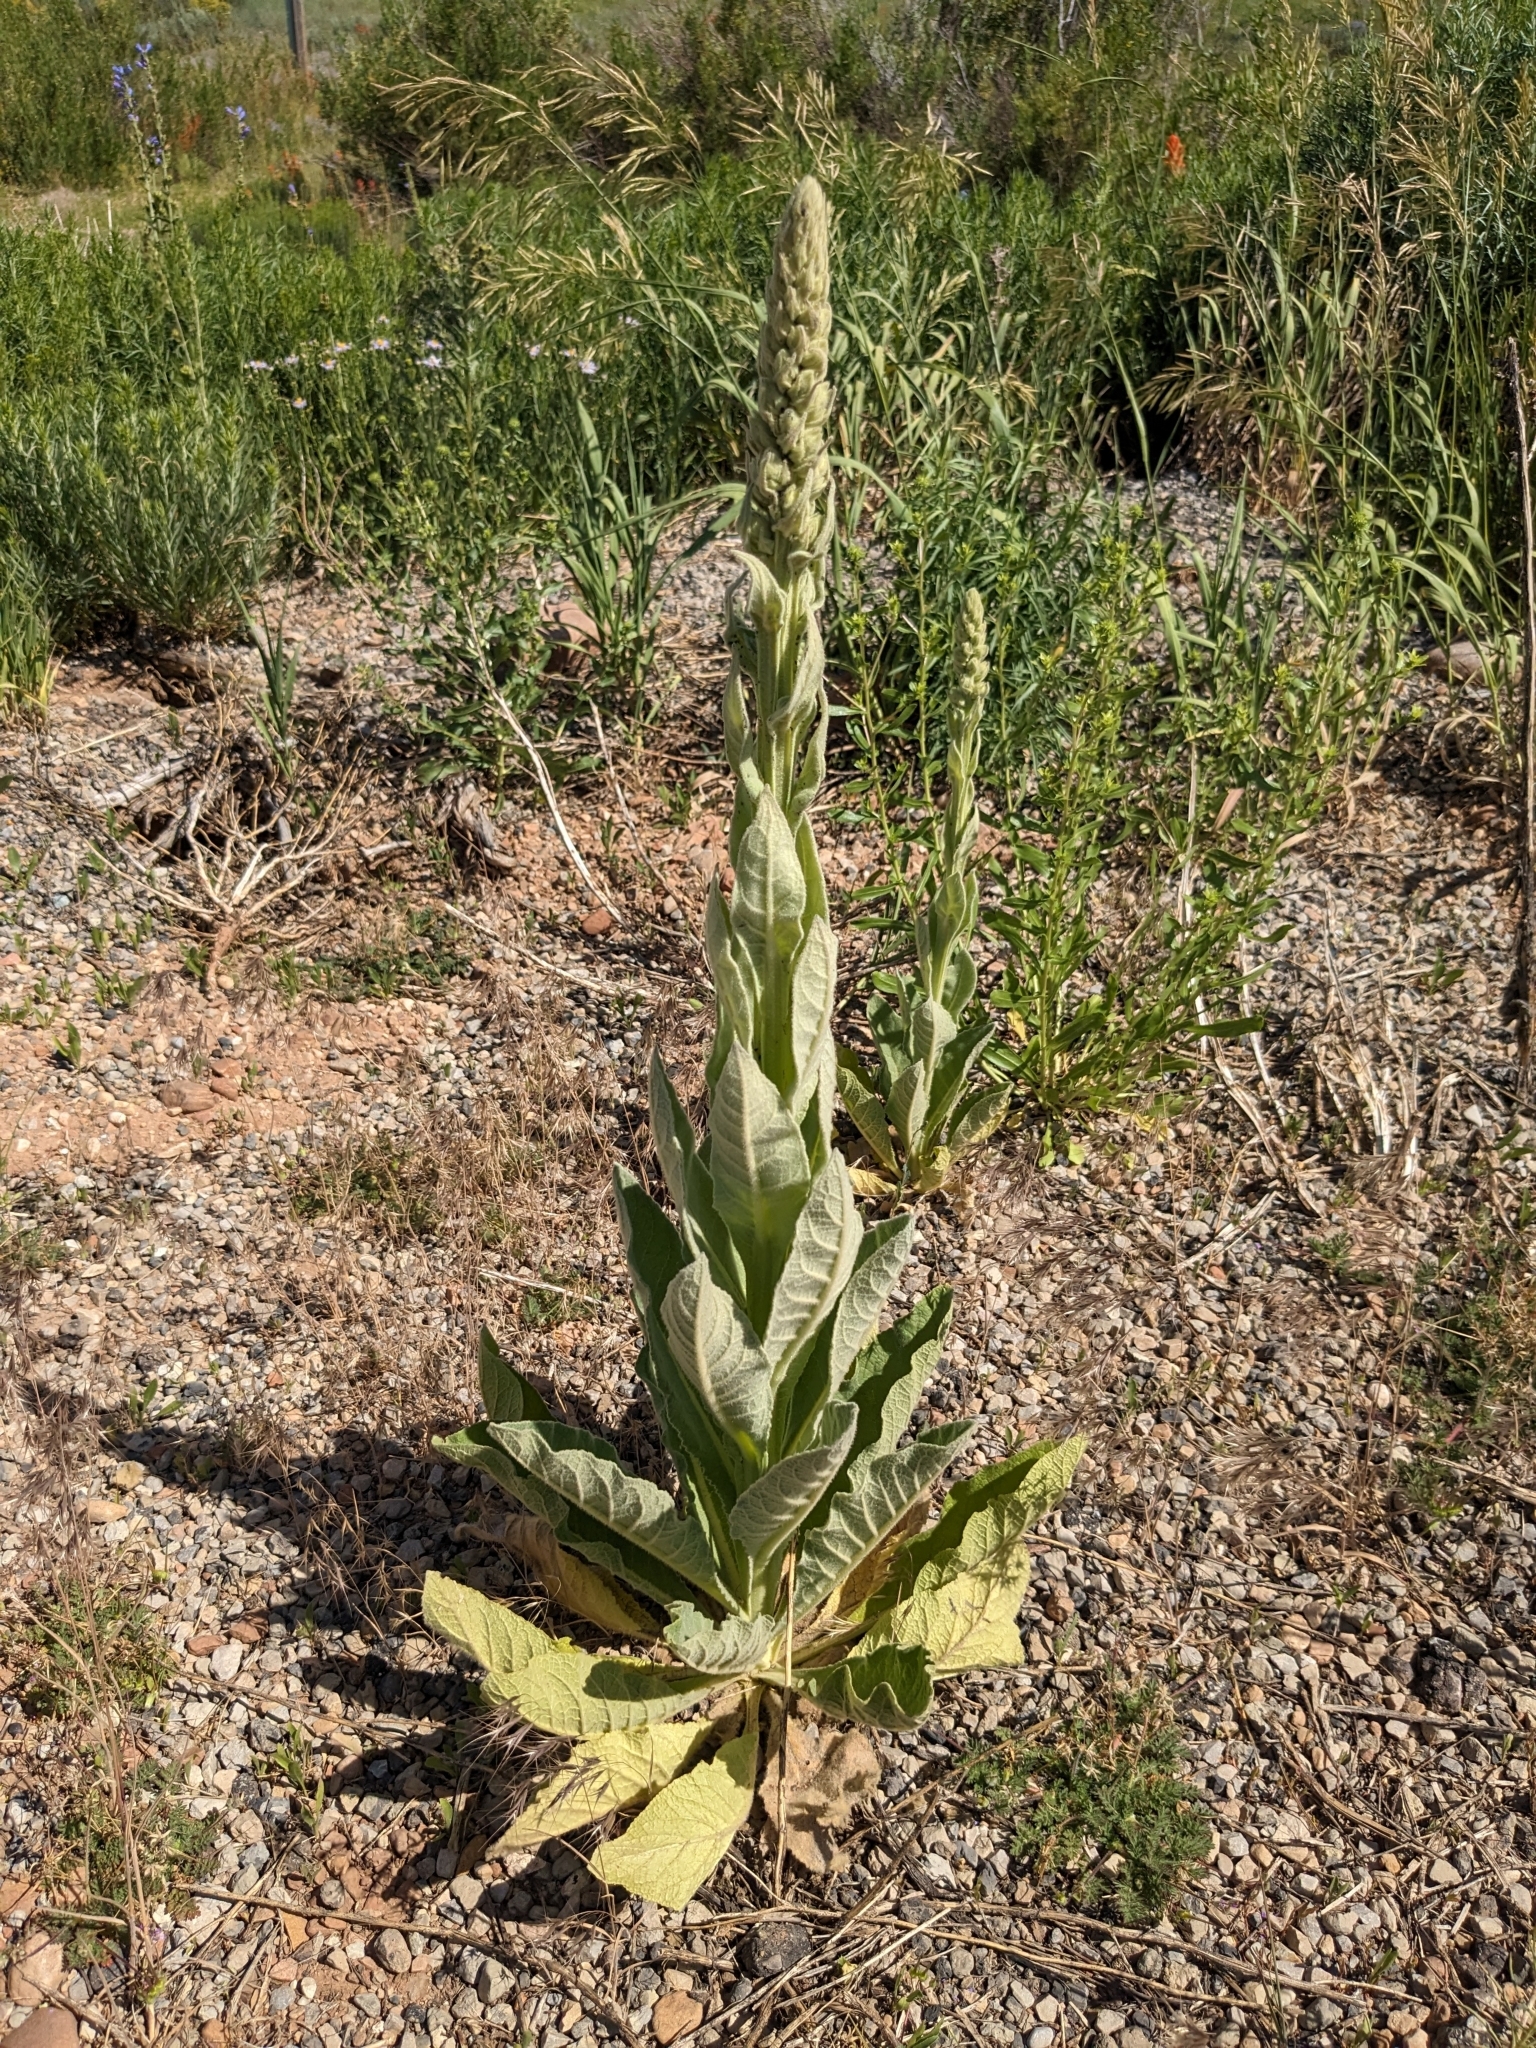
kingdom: Plantae
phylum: Tracheophyta
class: Magnoliopsida
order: Lamiales
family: Scrophulariaceae
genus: Verbascum
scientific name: Verbascum thapsus
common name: Common mullein
